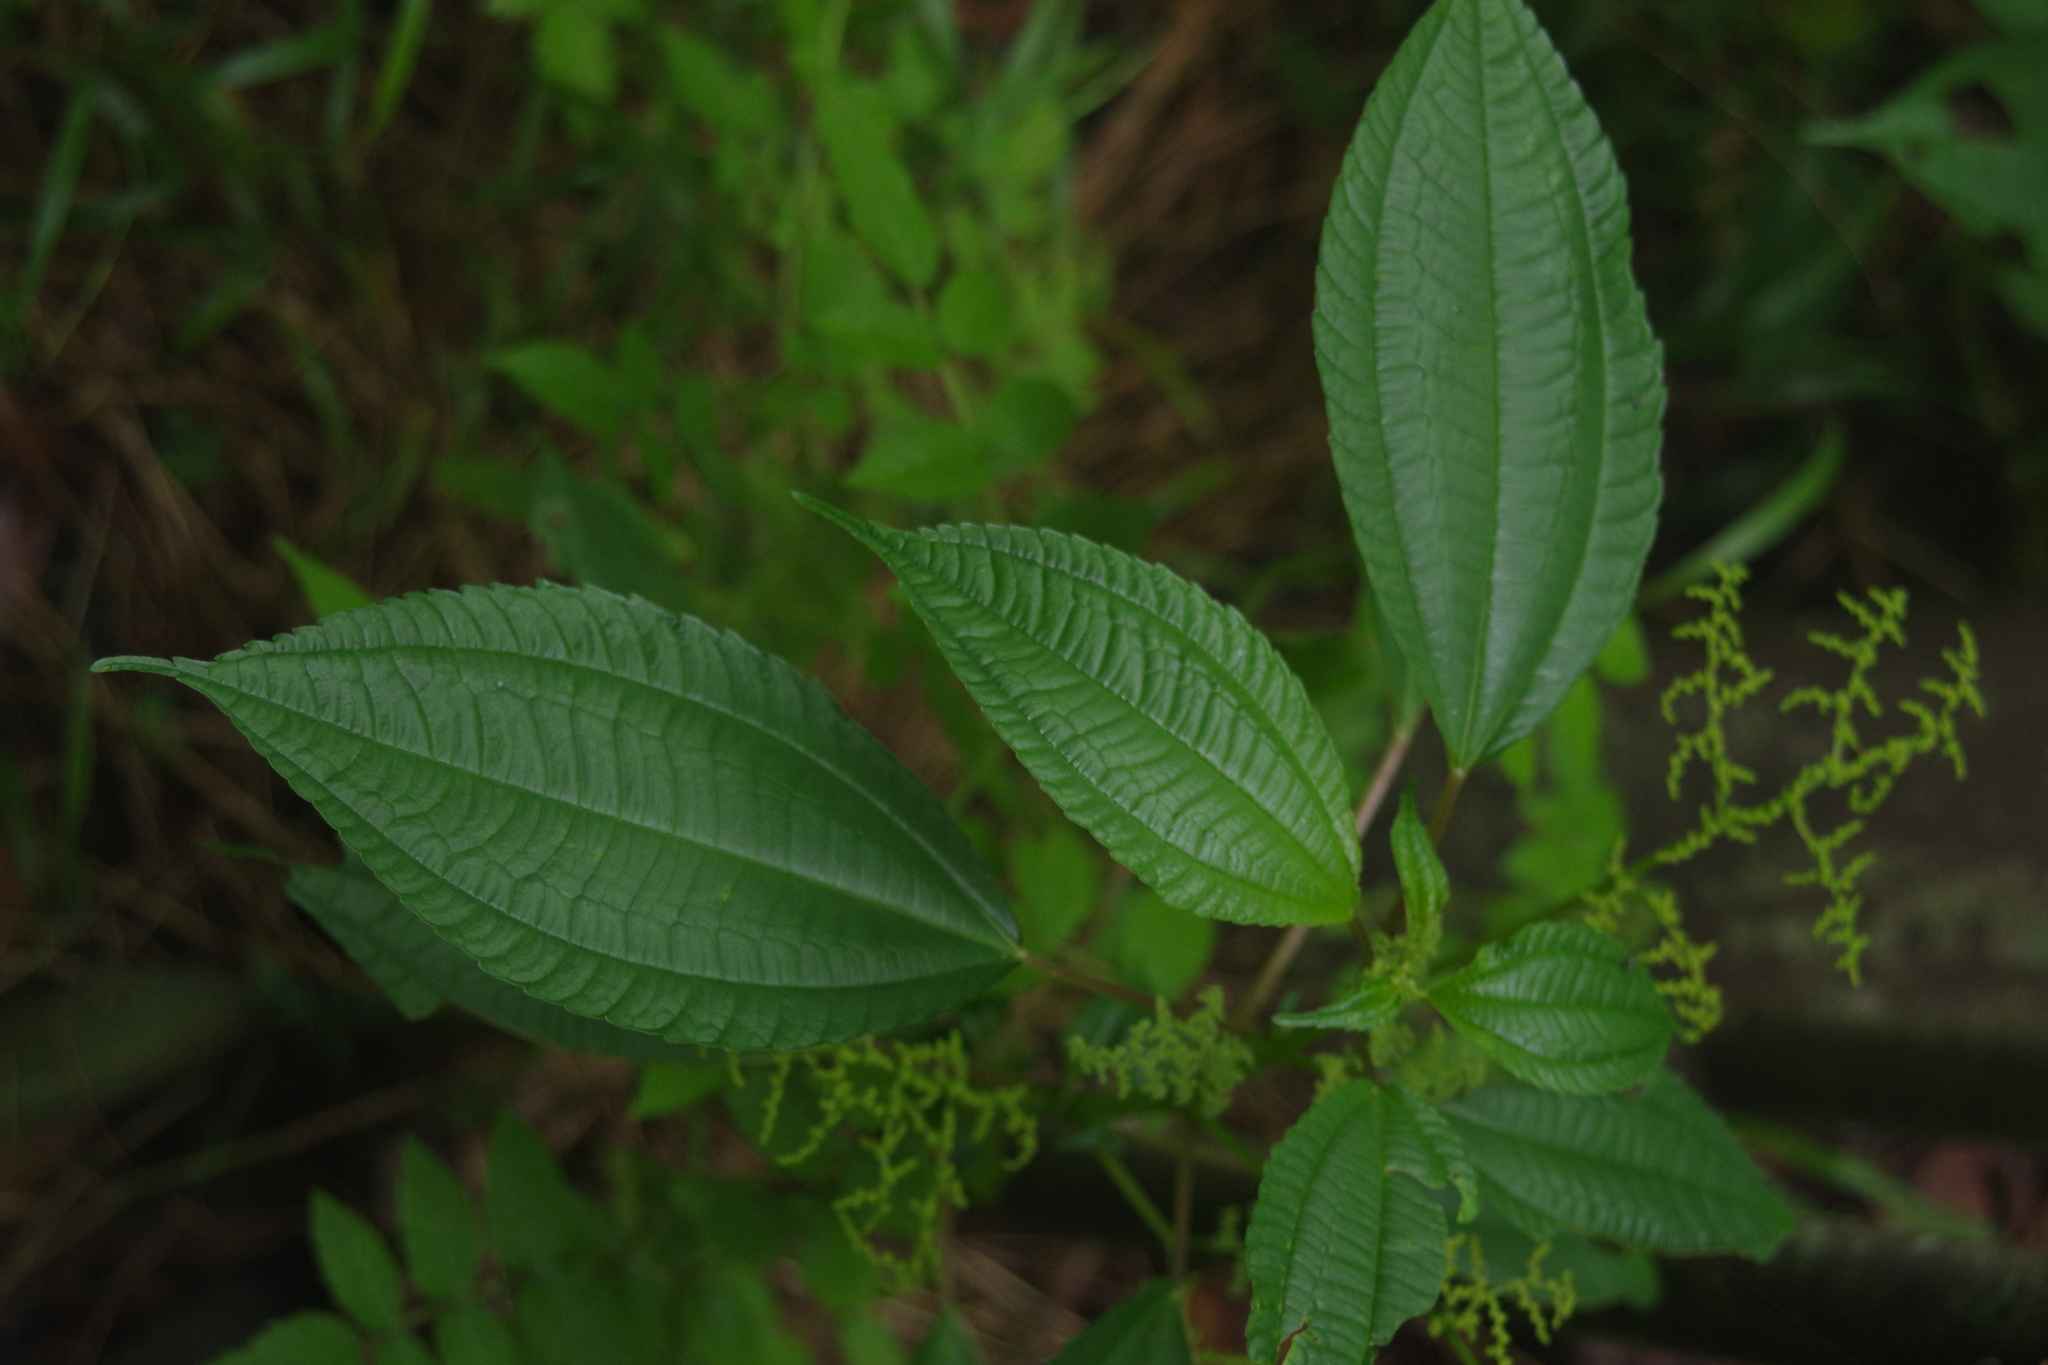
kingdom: Plantae
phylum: Tracheophyta
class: Magnoliopsida
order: Rosales
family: Urticaceae
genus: Pilea
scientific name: Pilea melastomoides
